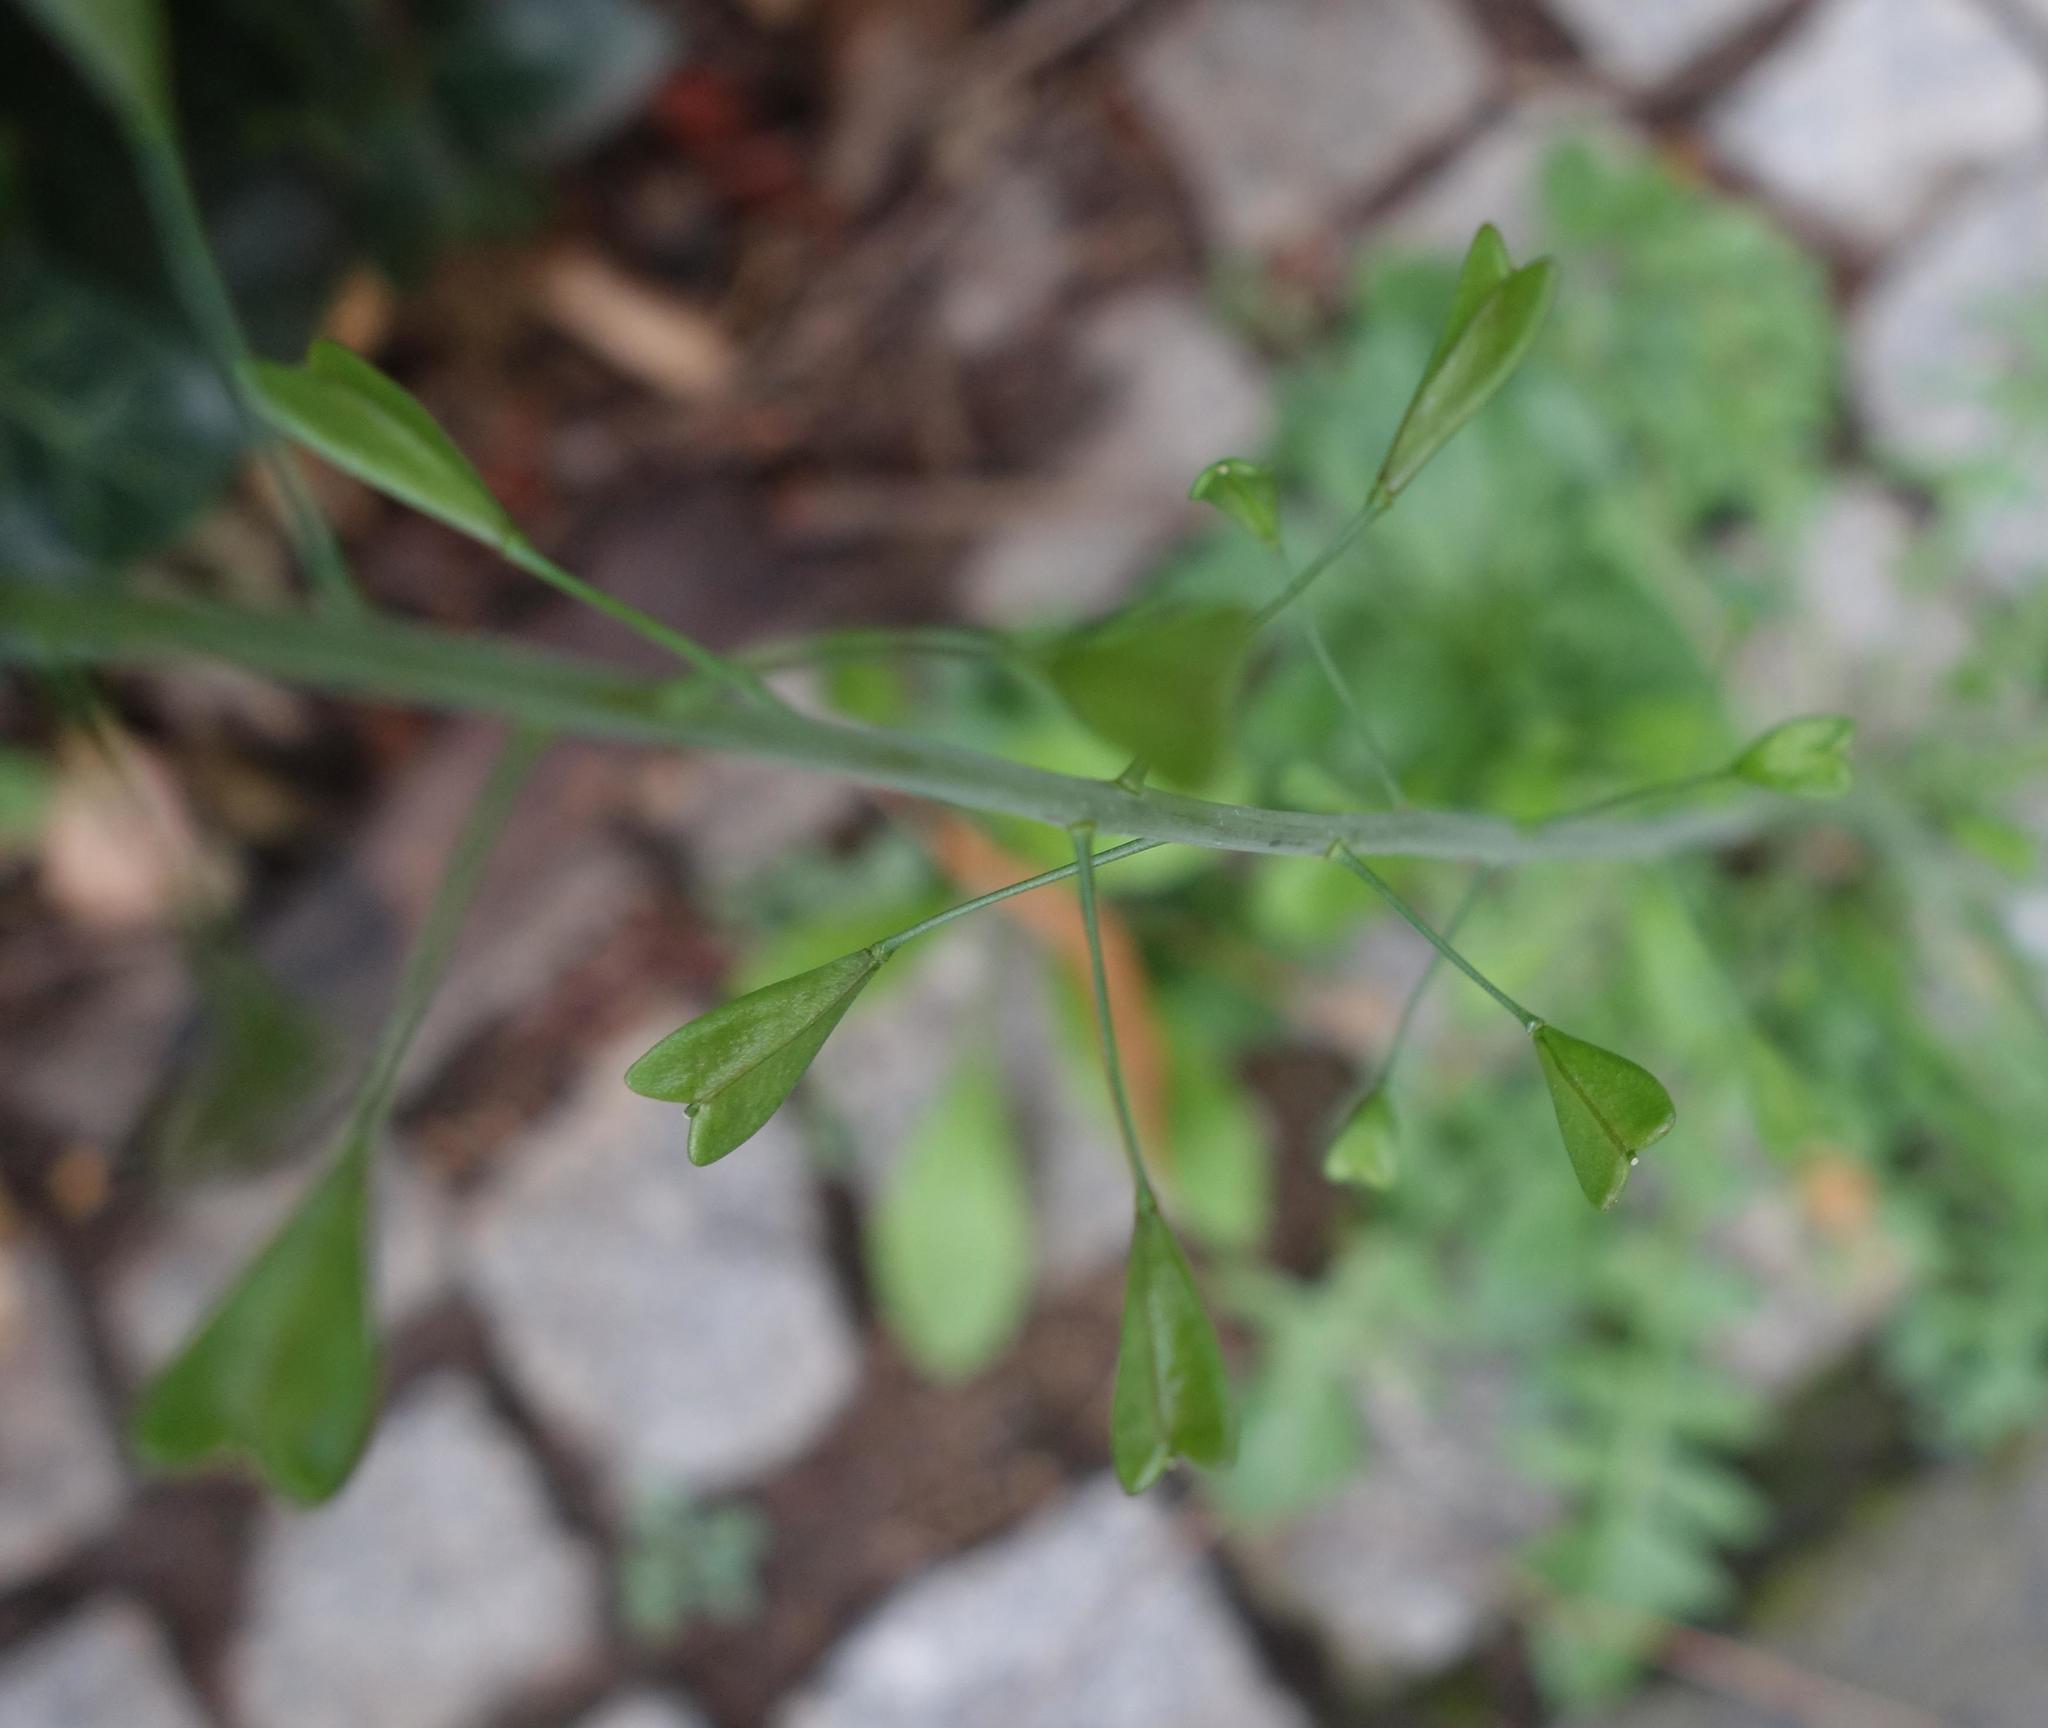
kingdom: Plantae
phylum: Tracheophyta
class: Magnoliopsida
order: Brassicales
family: Brassicaceae
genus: Capsella
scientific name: Capsella bursa-pastoris
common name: Shepherd's purse
